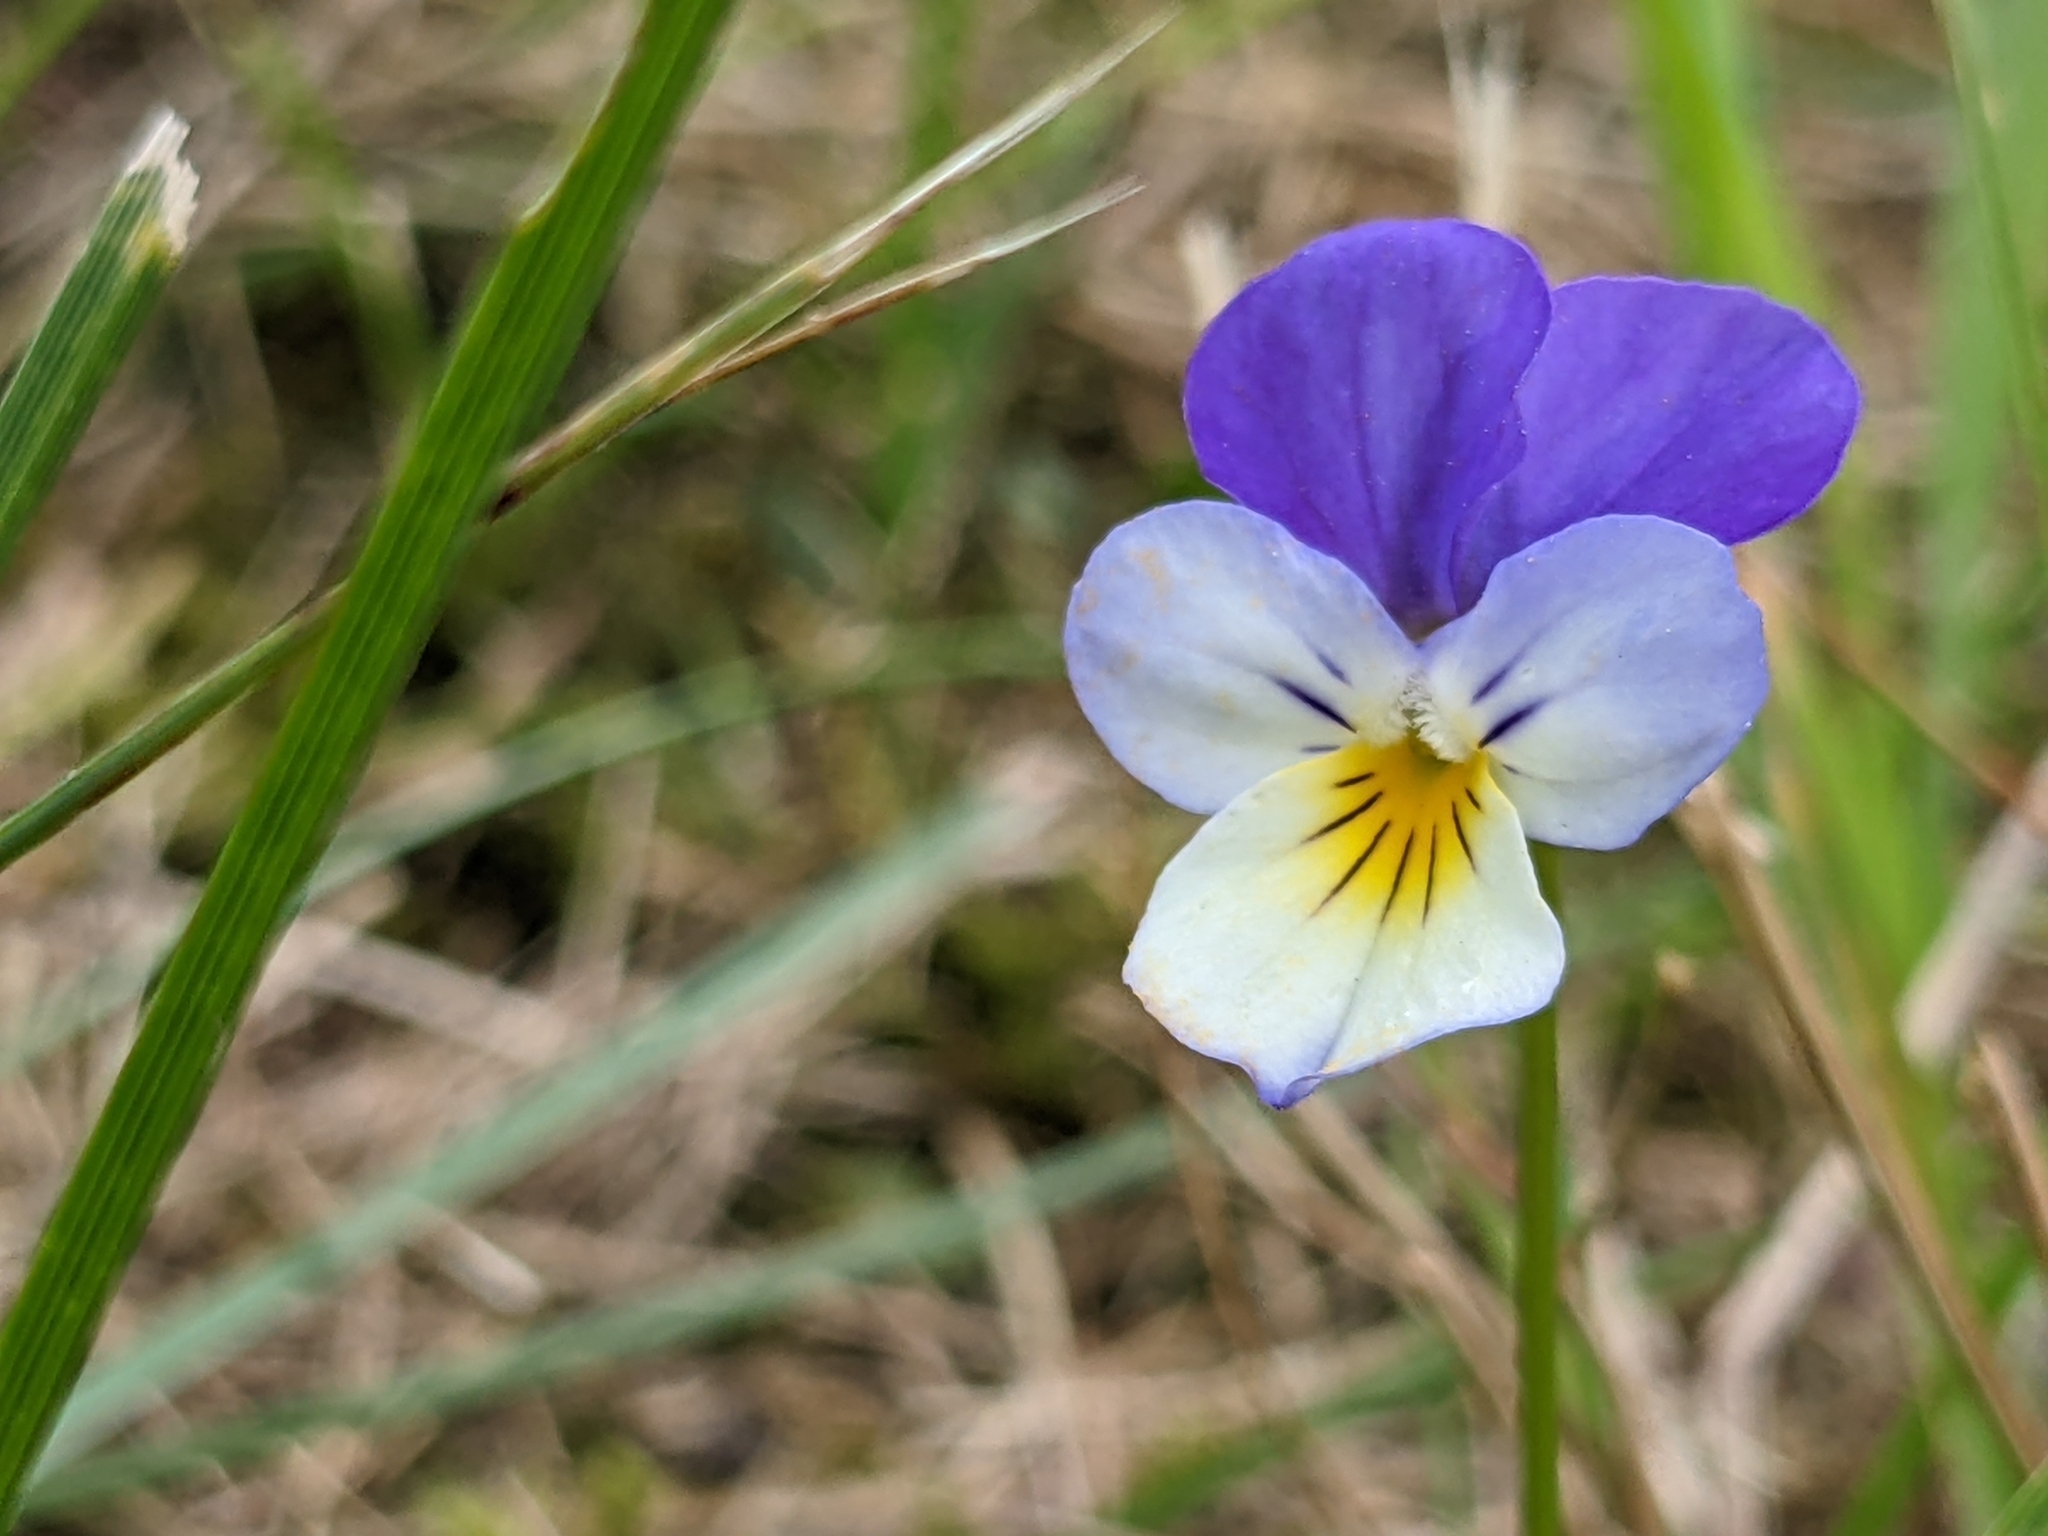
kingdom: Plantae
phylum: Tracheophyta
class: Magnoliopsida
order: Malpighiales
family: Violaceae
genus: Viola
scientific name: Viola tricolor
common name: Pansy
